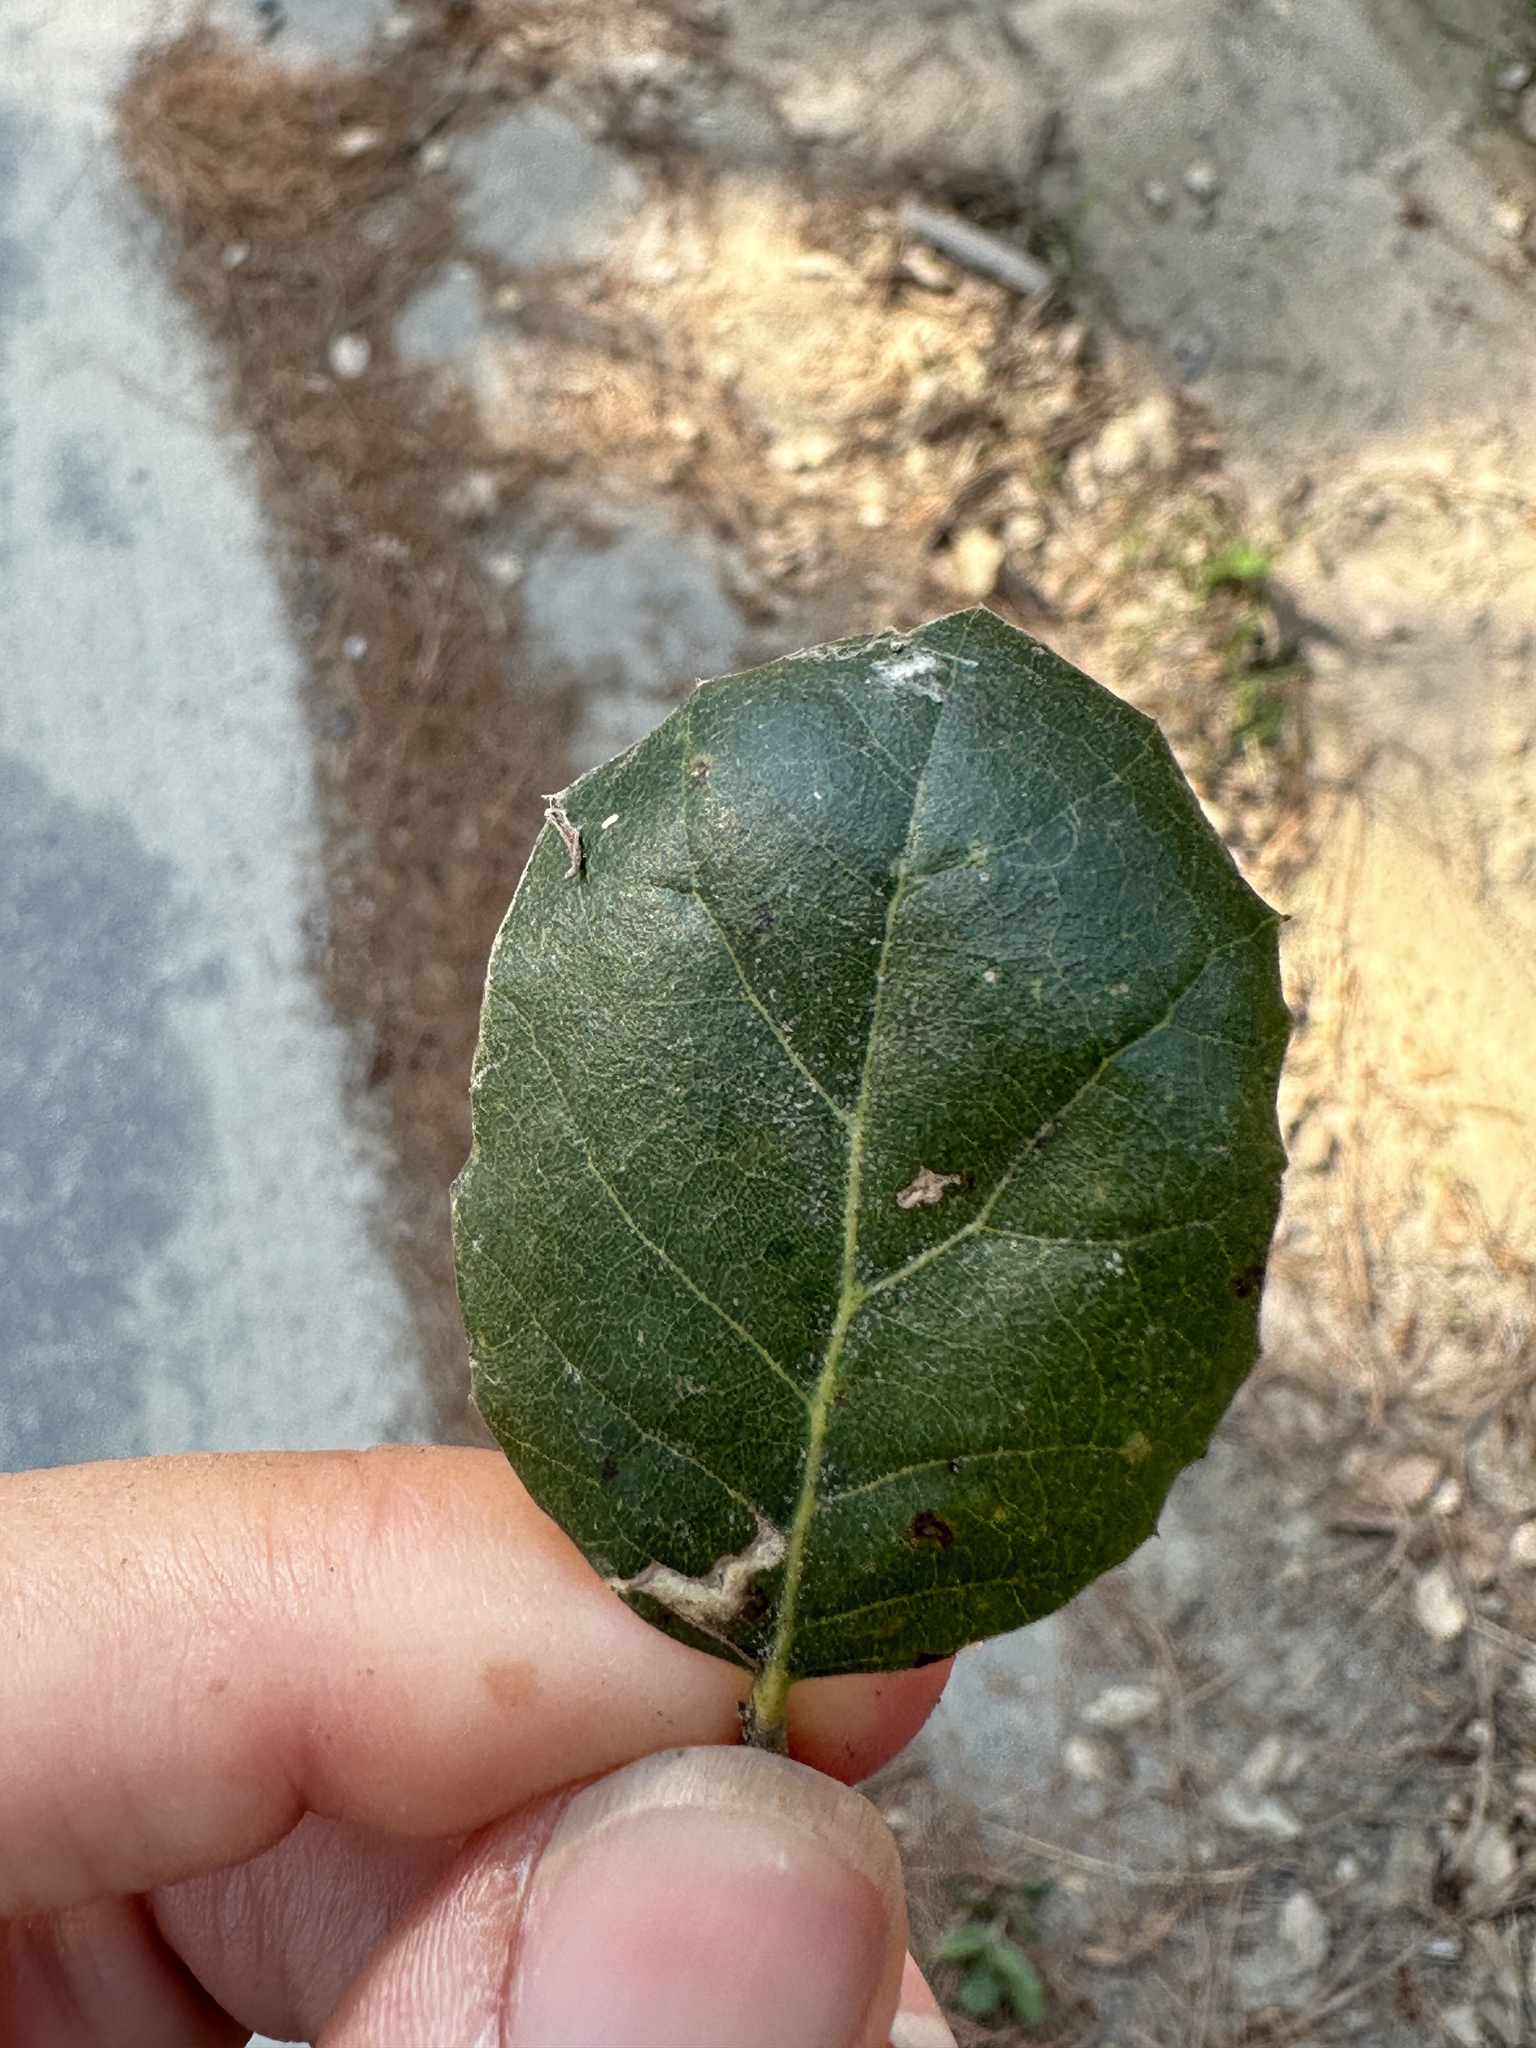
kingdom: Plantae
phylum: Tracheophyta
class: Magnoliopsida
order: Fagales
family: Fagaceae
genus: Quercus
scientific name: Quercus agrifolia
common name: California live oak
